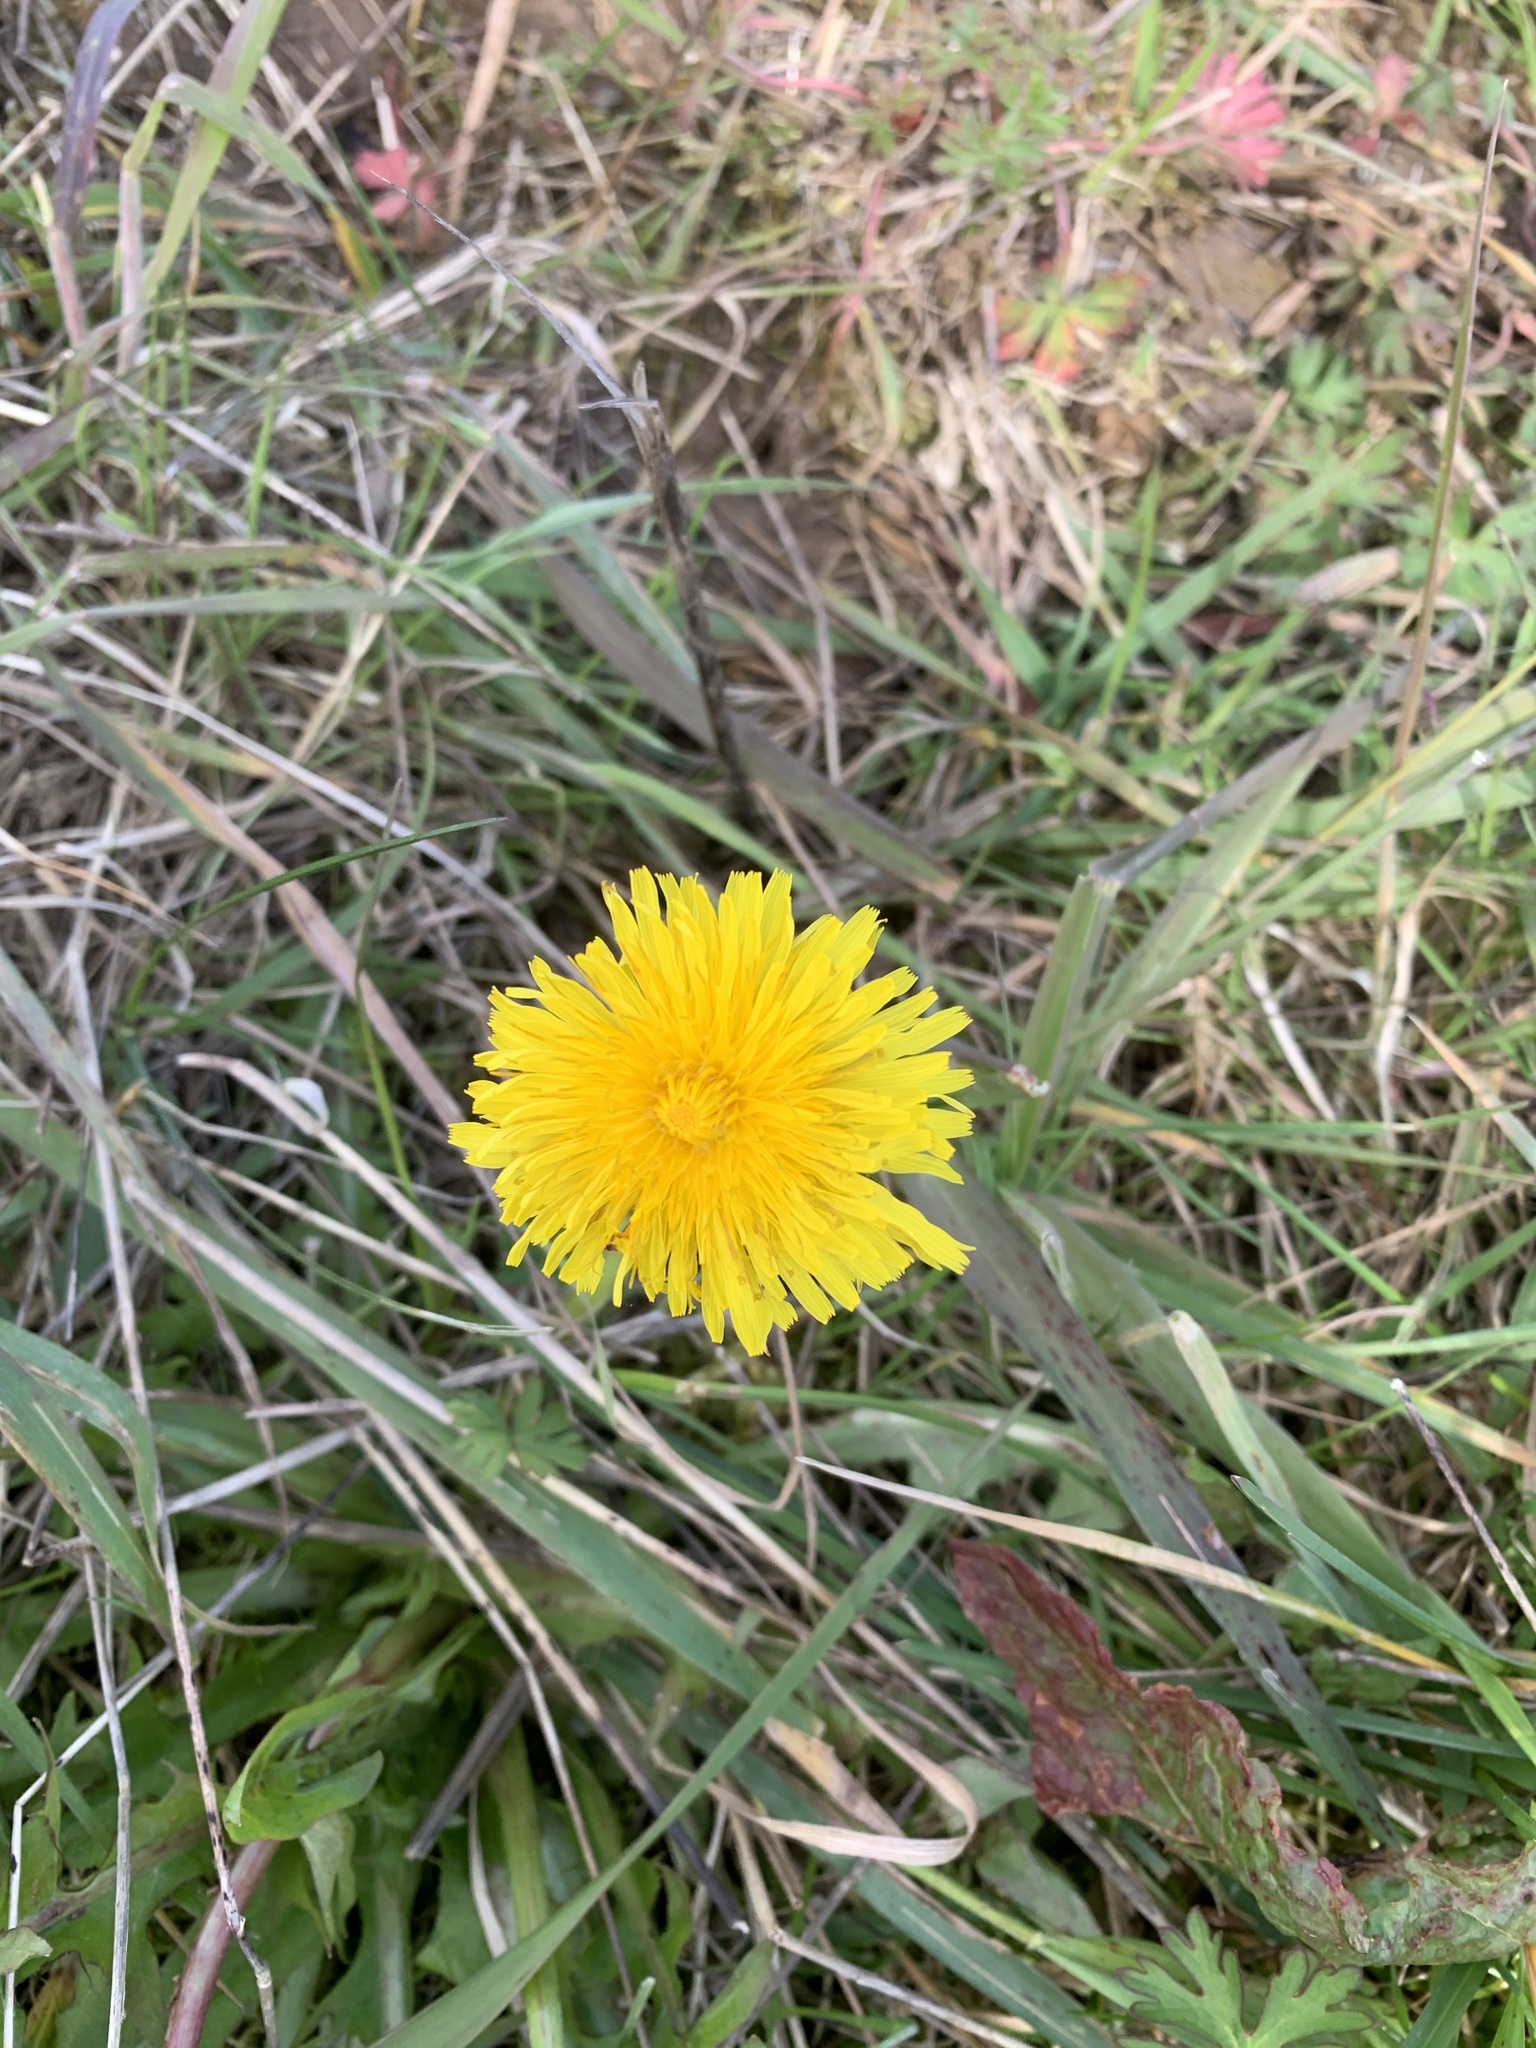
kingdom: Plantae
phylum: Tracheophyta
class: Magnoliopsida
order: Asterales
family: Asteraceae
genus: Taraxacum
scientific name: Taraxacum officinale
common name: Common dandelion
